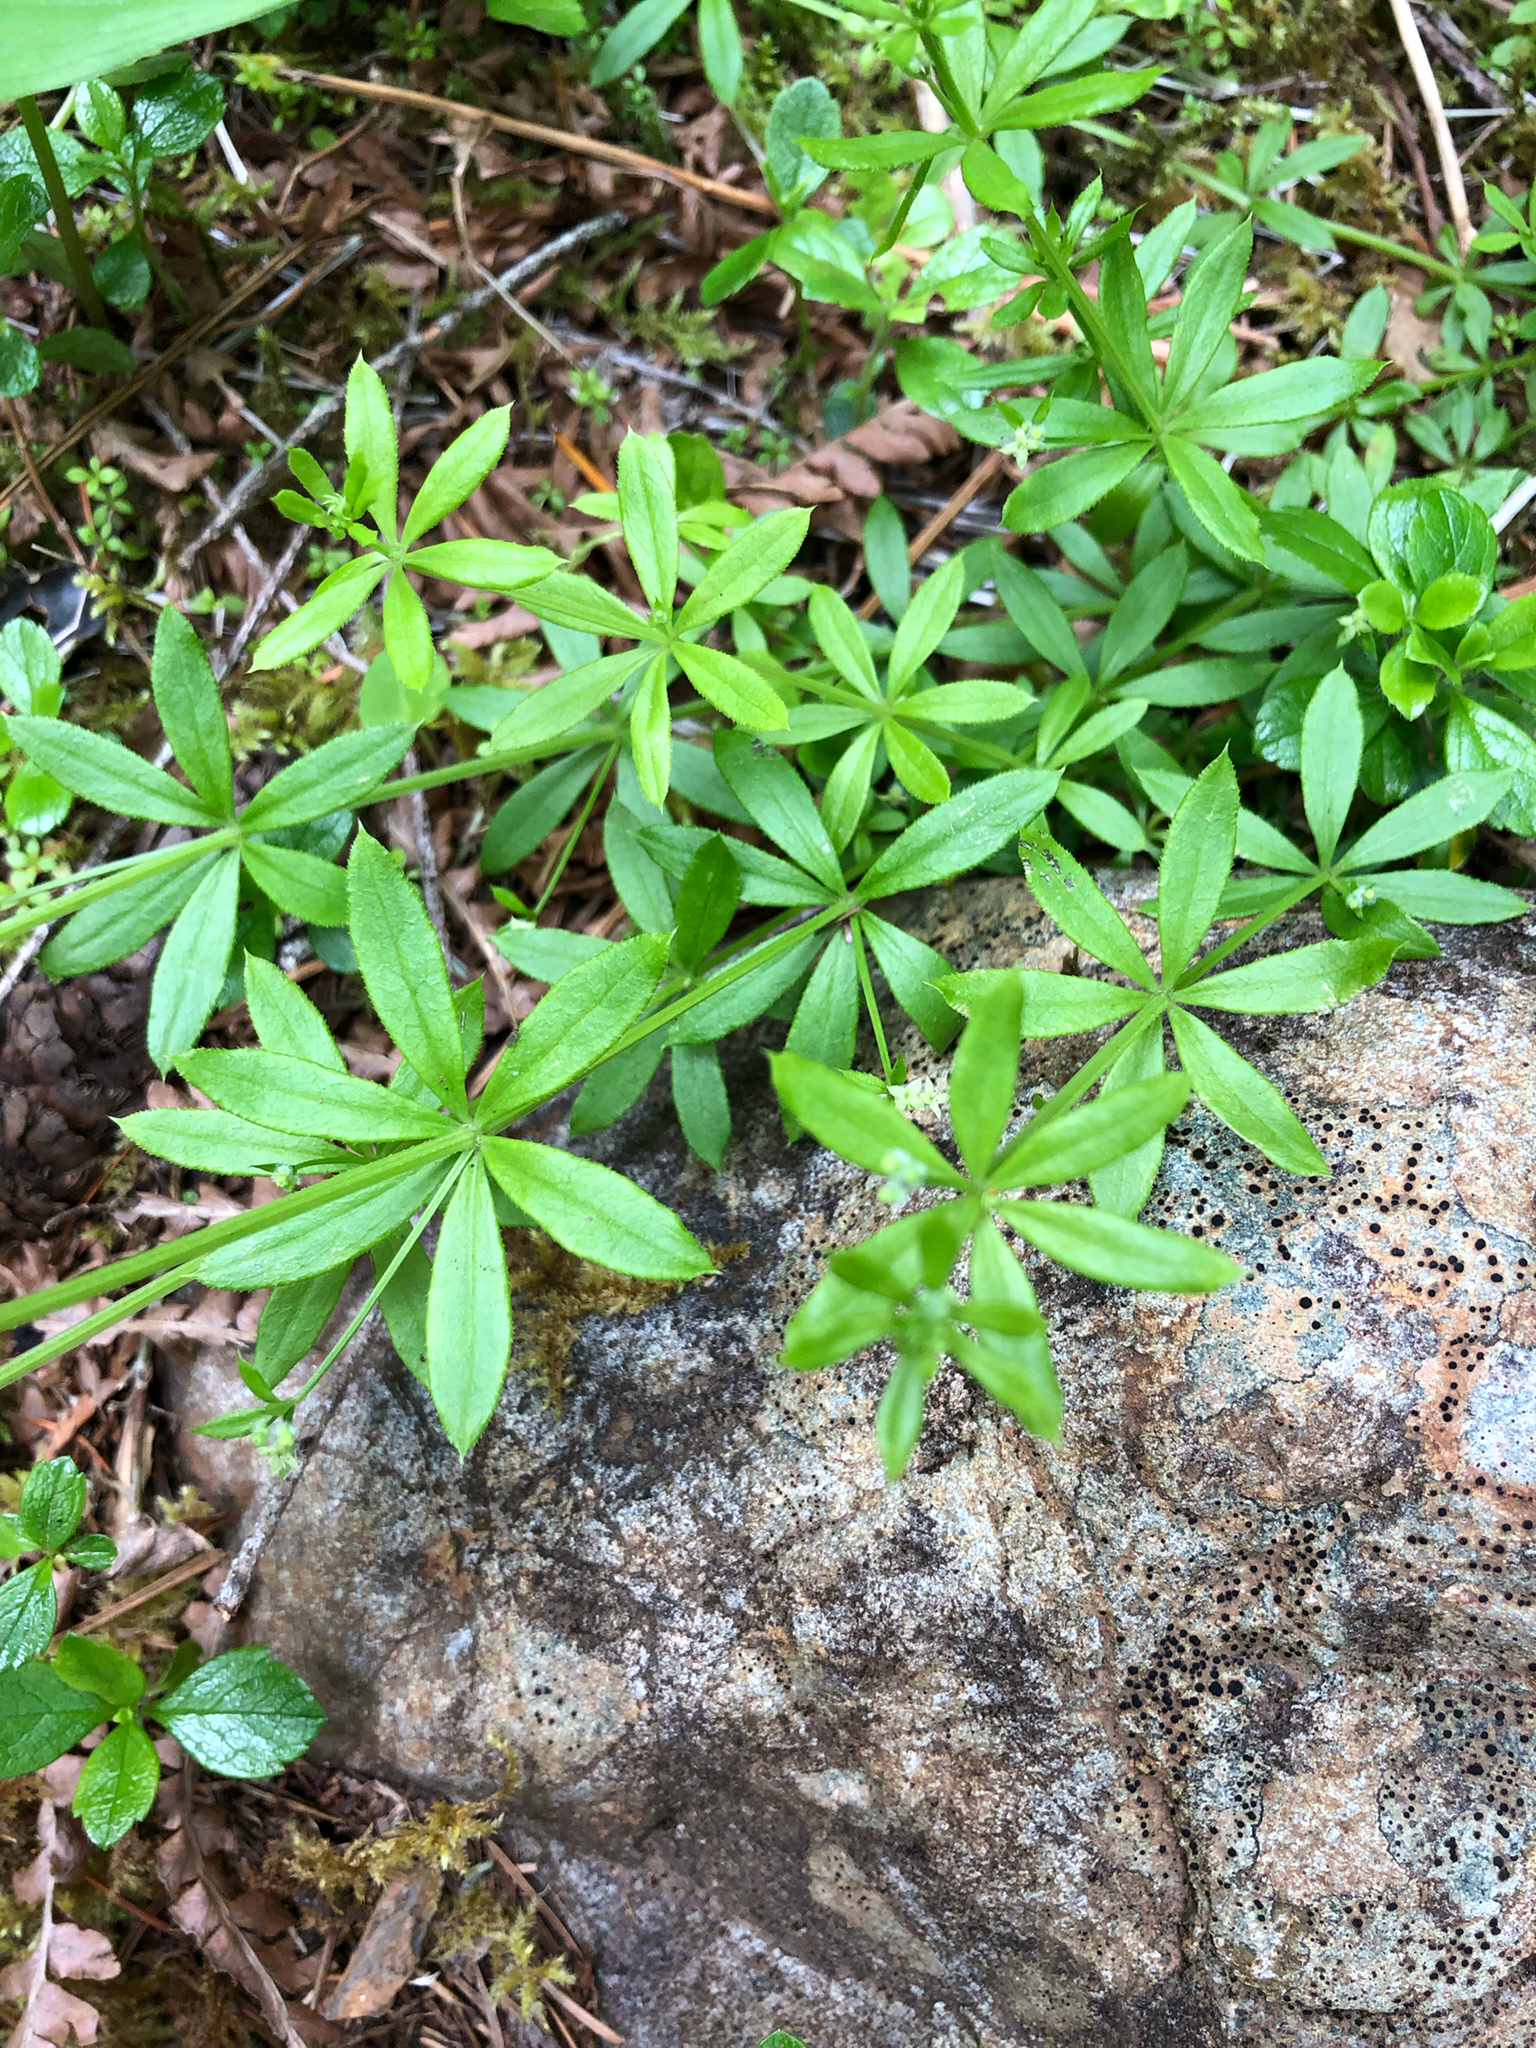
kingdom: Plantae
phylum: Tracheophyta
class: Magnoliopsida
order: Gentianales
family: Rubiaceae
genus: Galium
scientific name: Galium triflorum
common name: Fragrant bedstraw
